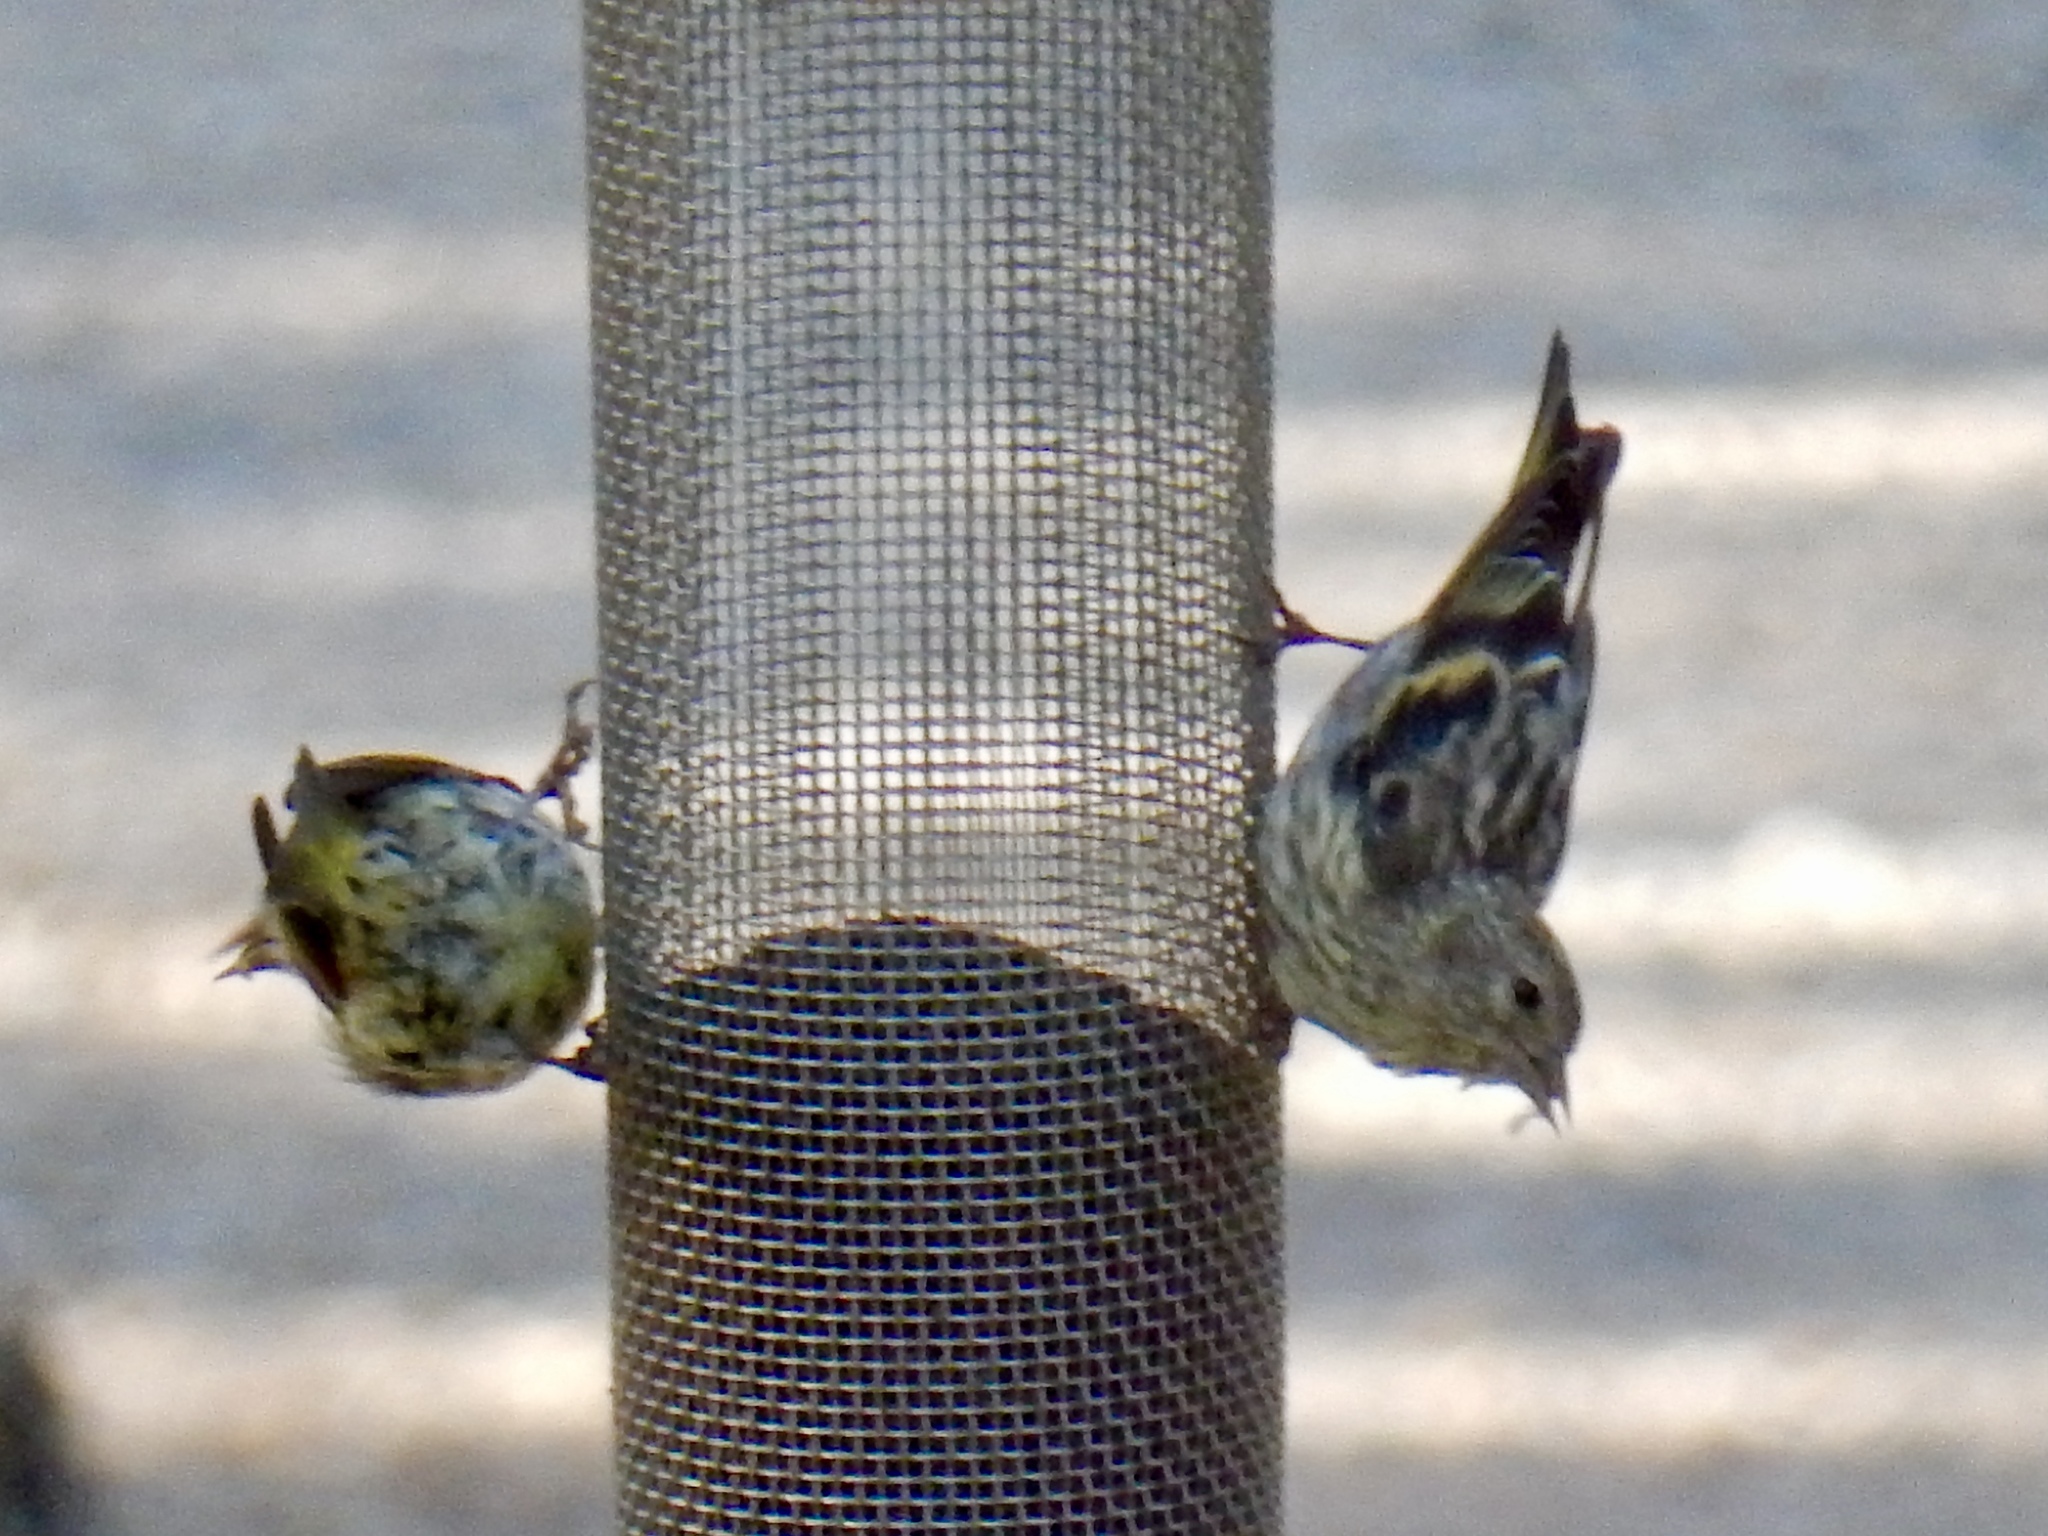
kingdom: Animalia
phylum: Chordata
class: Aves
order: Passeriformes
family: Fringillidae
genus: Spinus
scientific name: Spinus pinus
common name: Pine siskin
